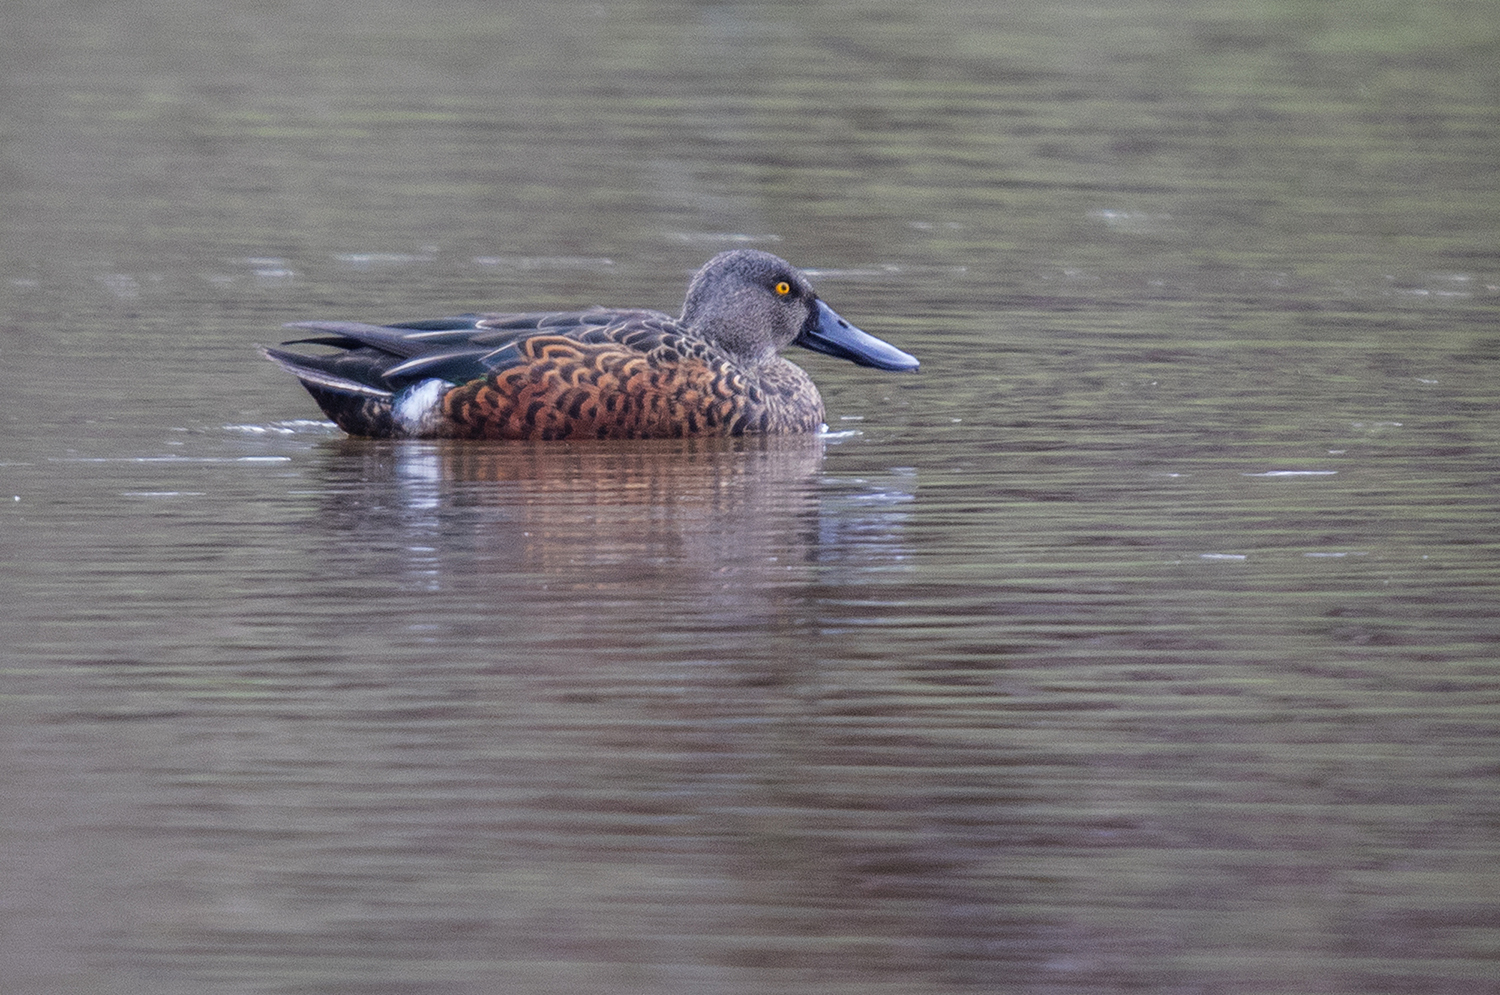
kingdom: Animalia
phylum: Chordata
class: Aves
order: Anseriformes
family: Anatidae
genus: Spatula
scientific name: Spatula rhynchotis
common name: Australian shoveler
